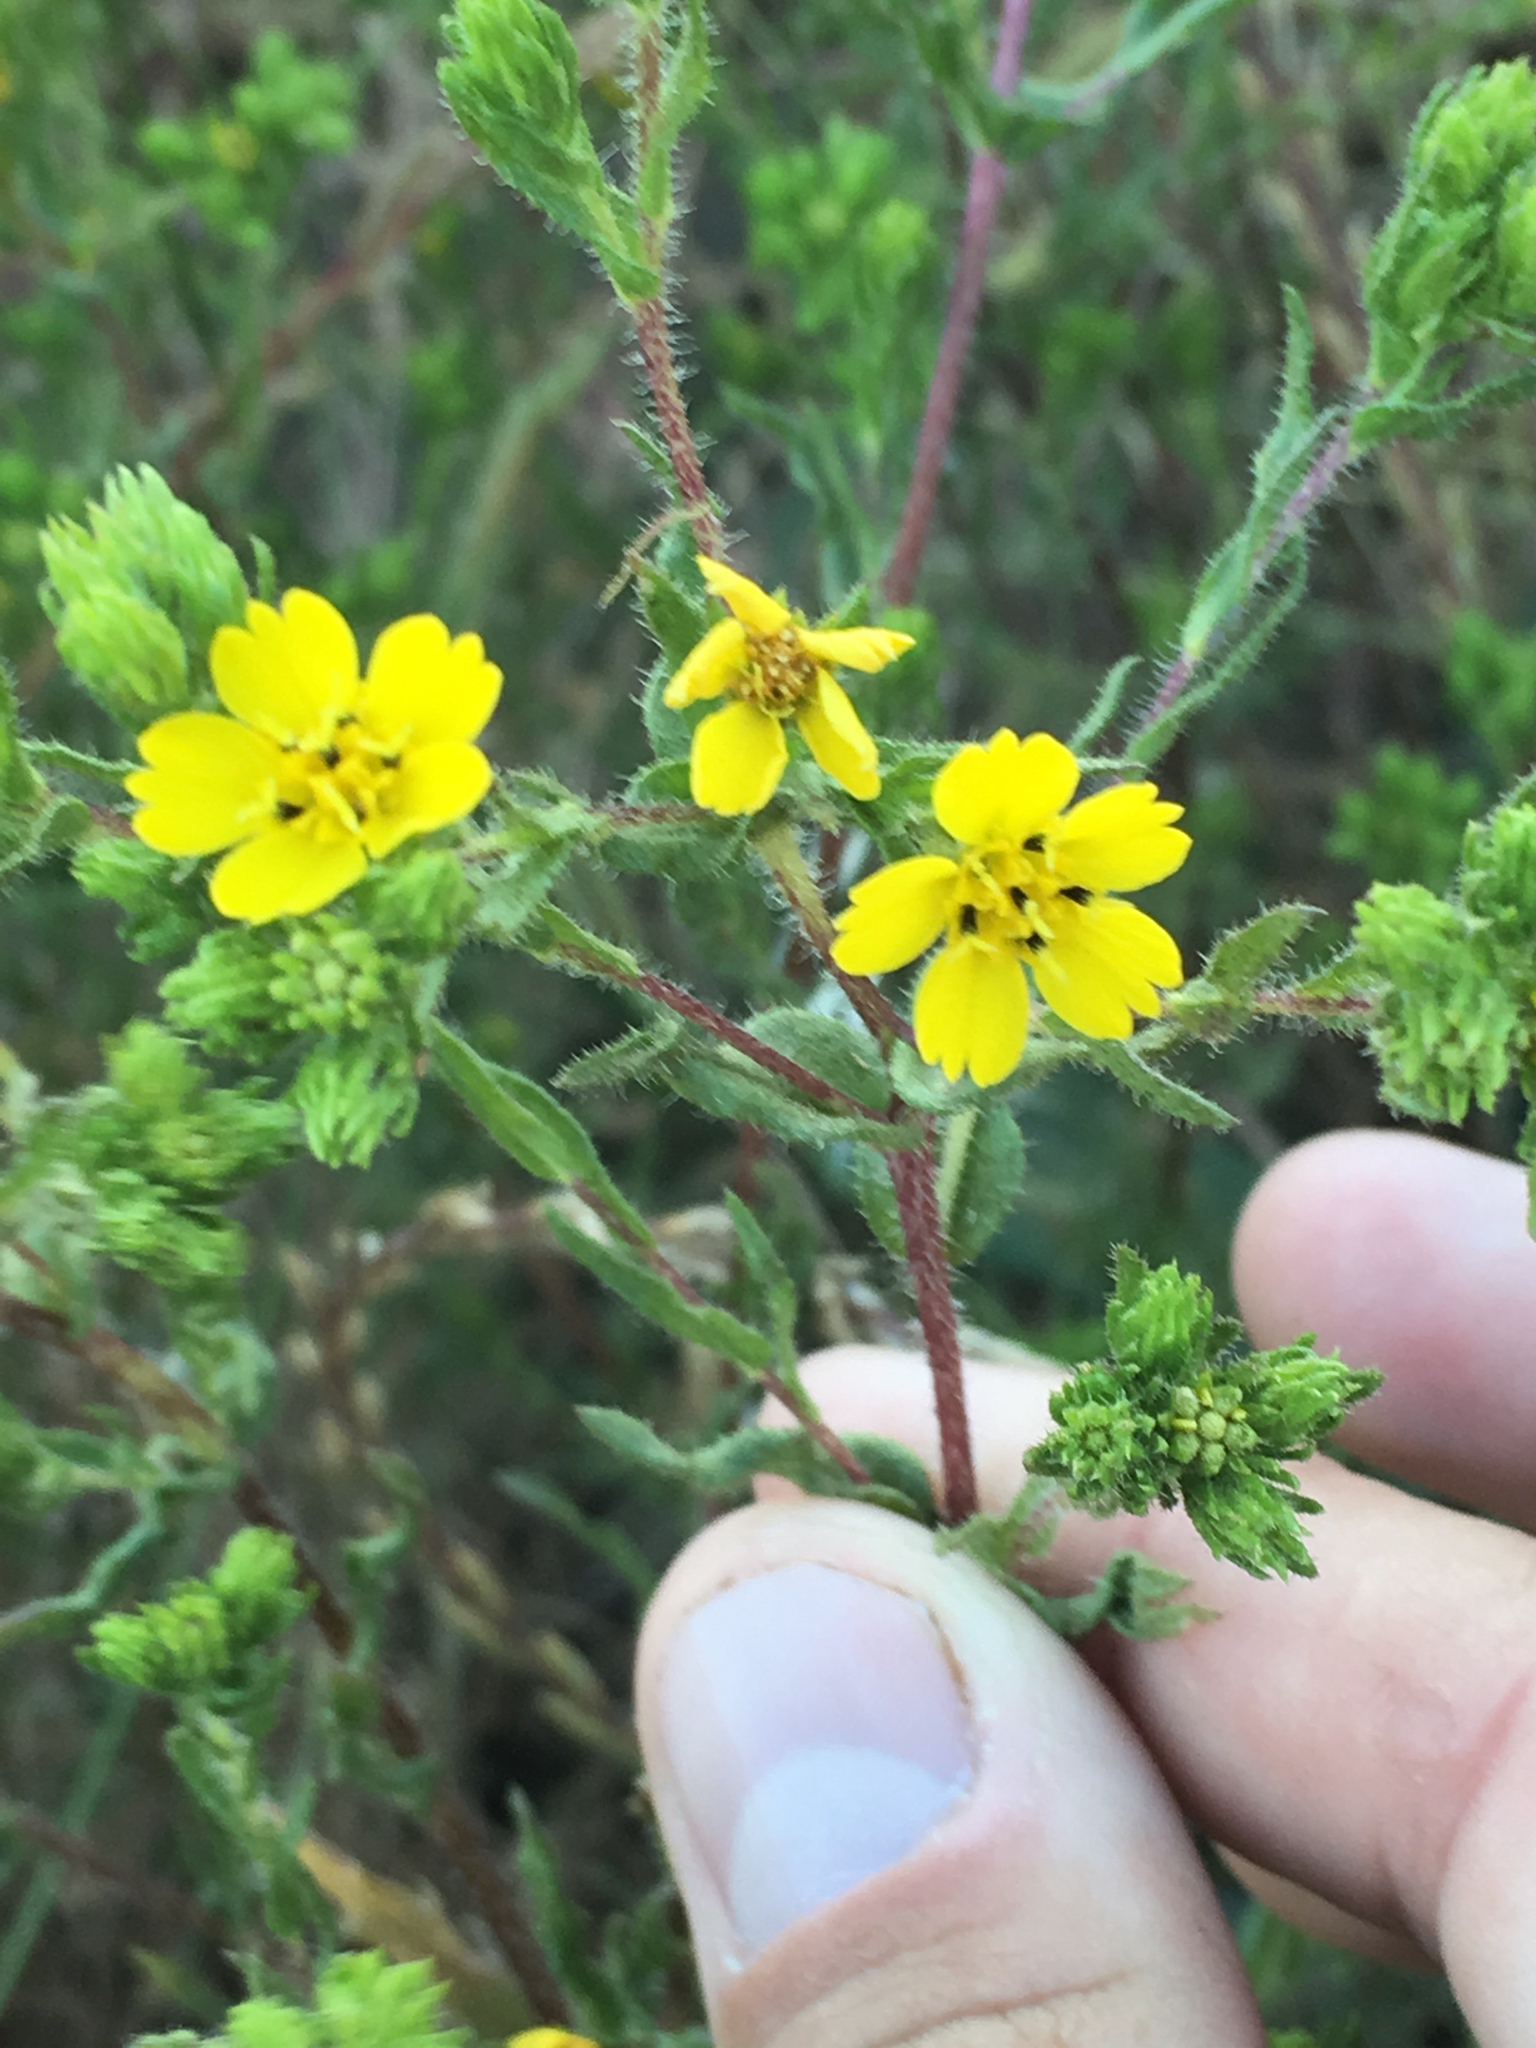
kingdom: Plantae
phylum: Tracheophyta
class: Magnoliopsida
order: Asterales
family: Asteraceae
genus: Deinandra
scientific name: Deinandra fasciculata
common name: Clustered tarweed
